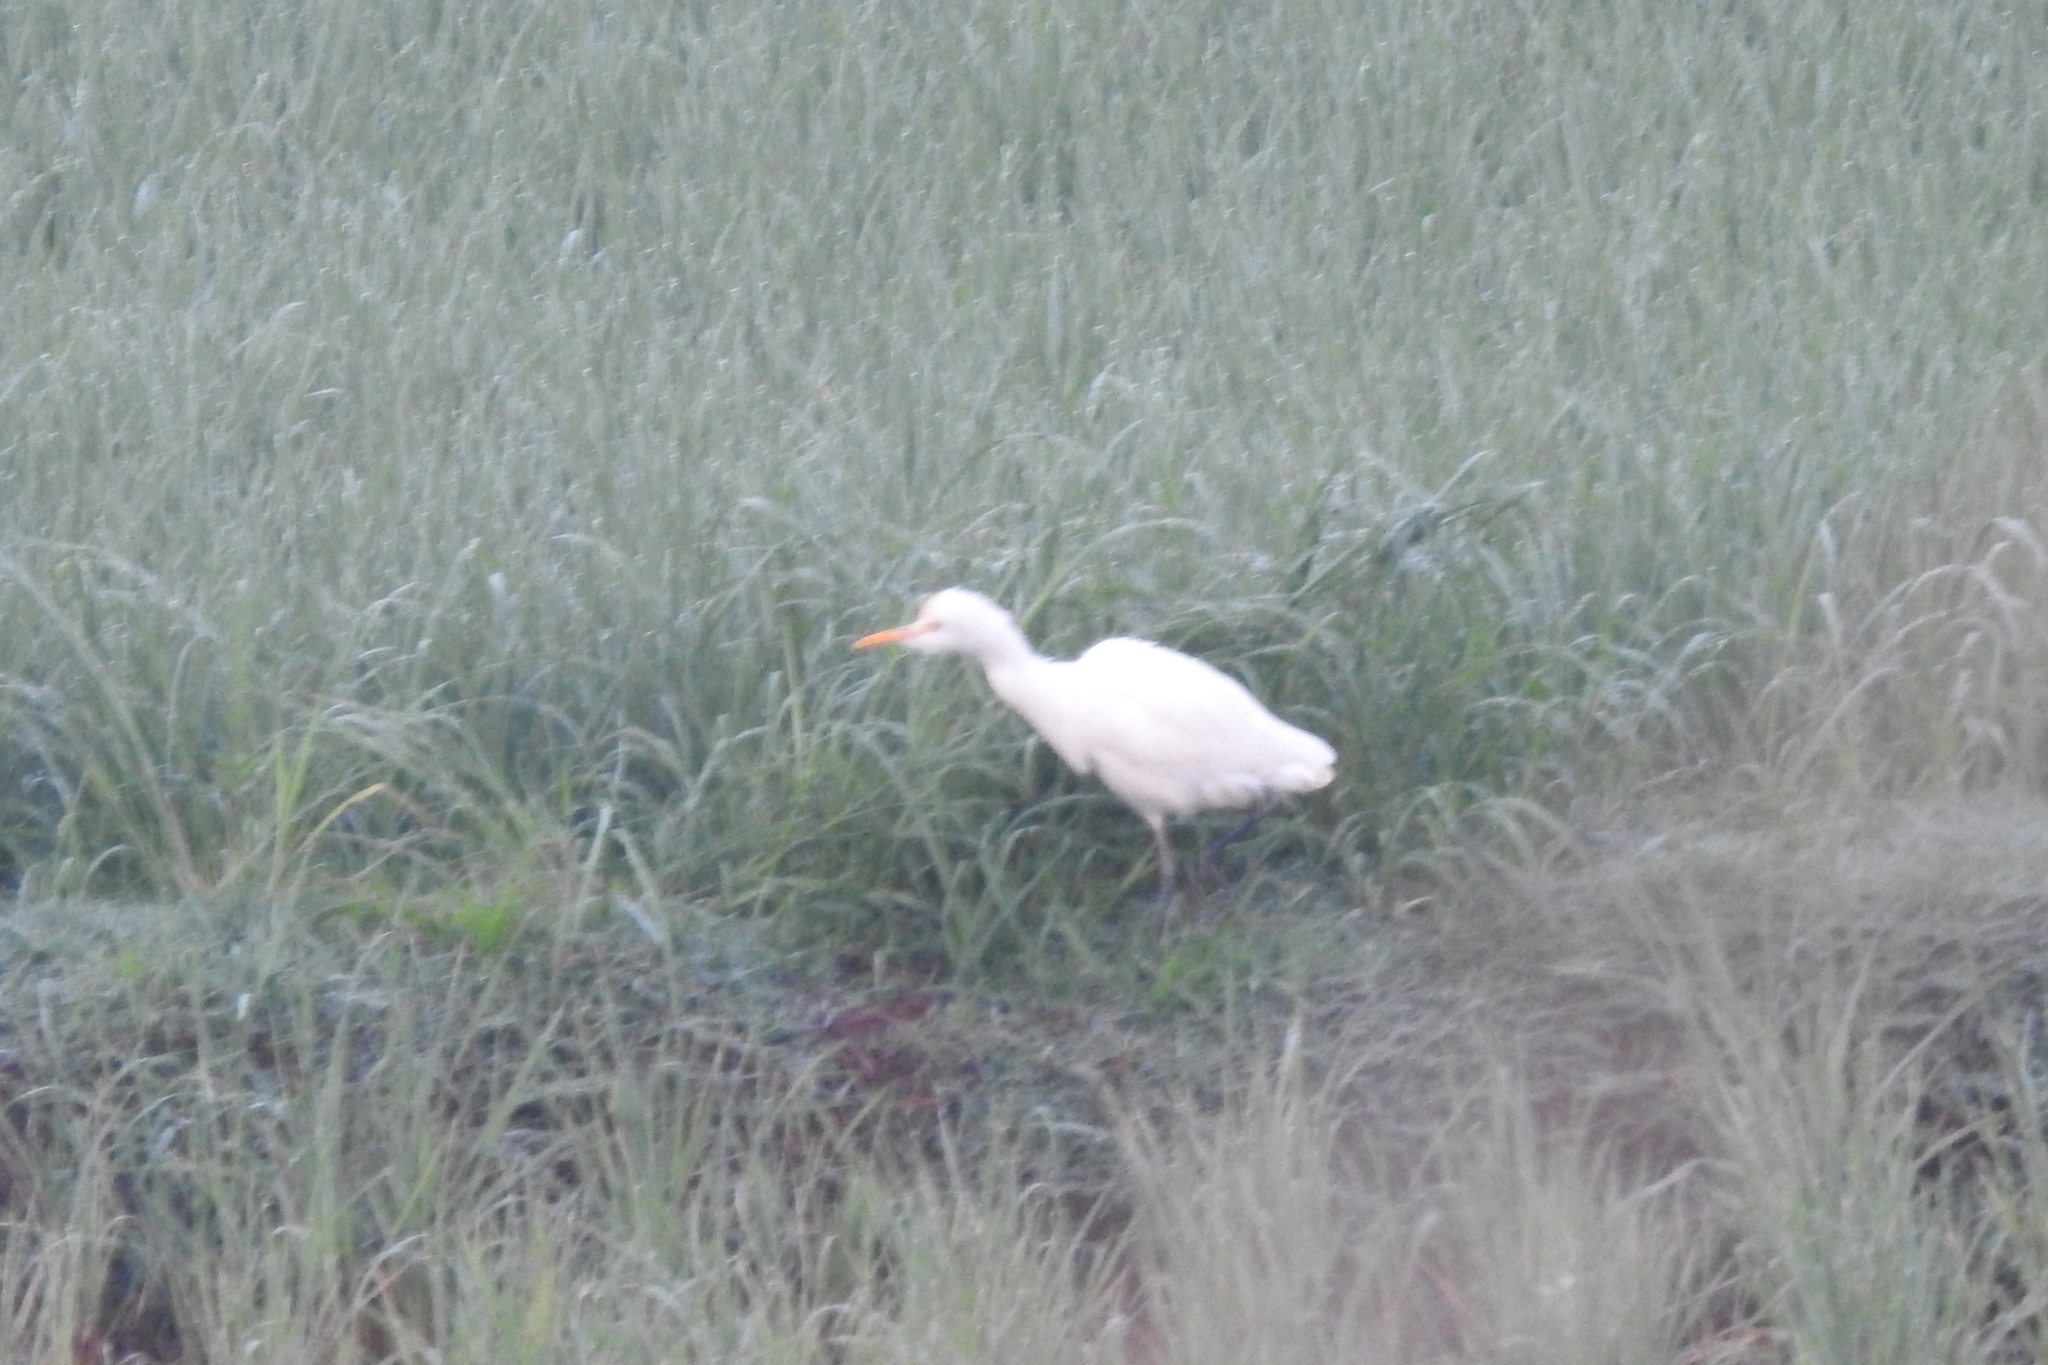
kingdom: Animalia
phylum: Chordata
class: Aves
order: Pelecaniformes
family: Ardeidae
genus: Bubulcus
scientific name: Bubulcus coromandus
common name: Eastern cattle egret
